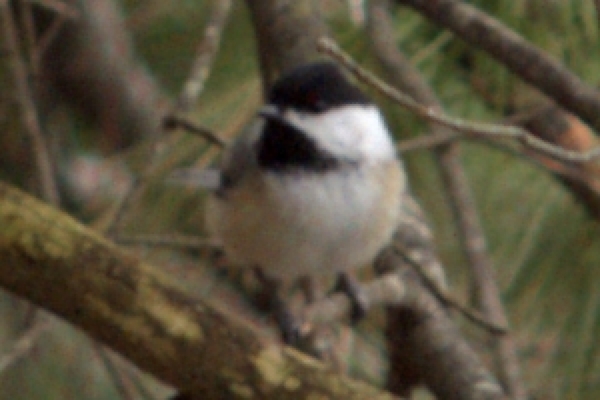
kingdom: Animalia
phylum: Chordata
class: Aves
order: Passeriformes
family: Paridae
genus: Poecile
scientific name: Poecile atricapillus
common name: Black-capped chickadee
